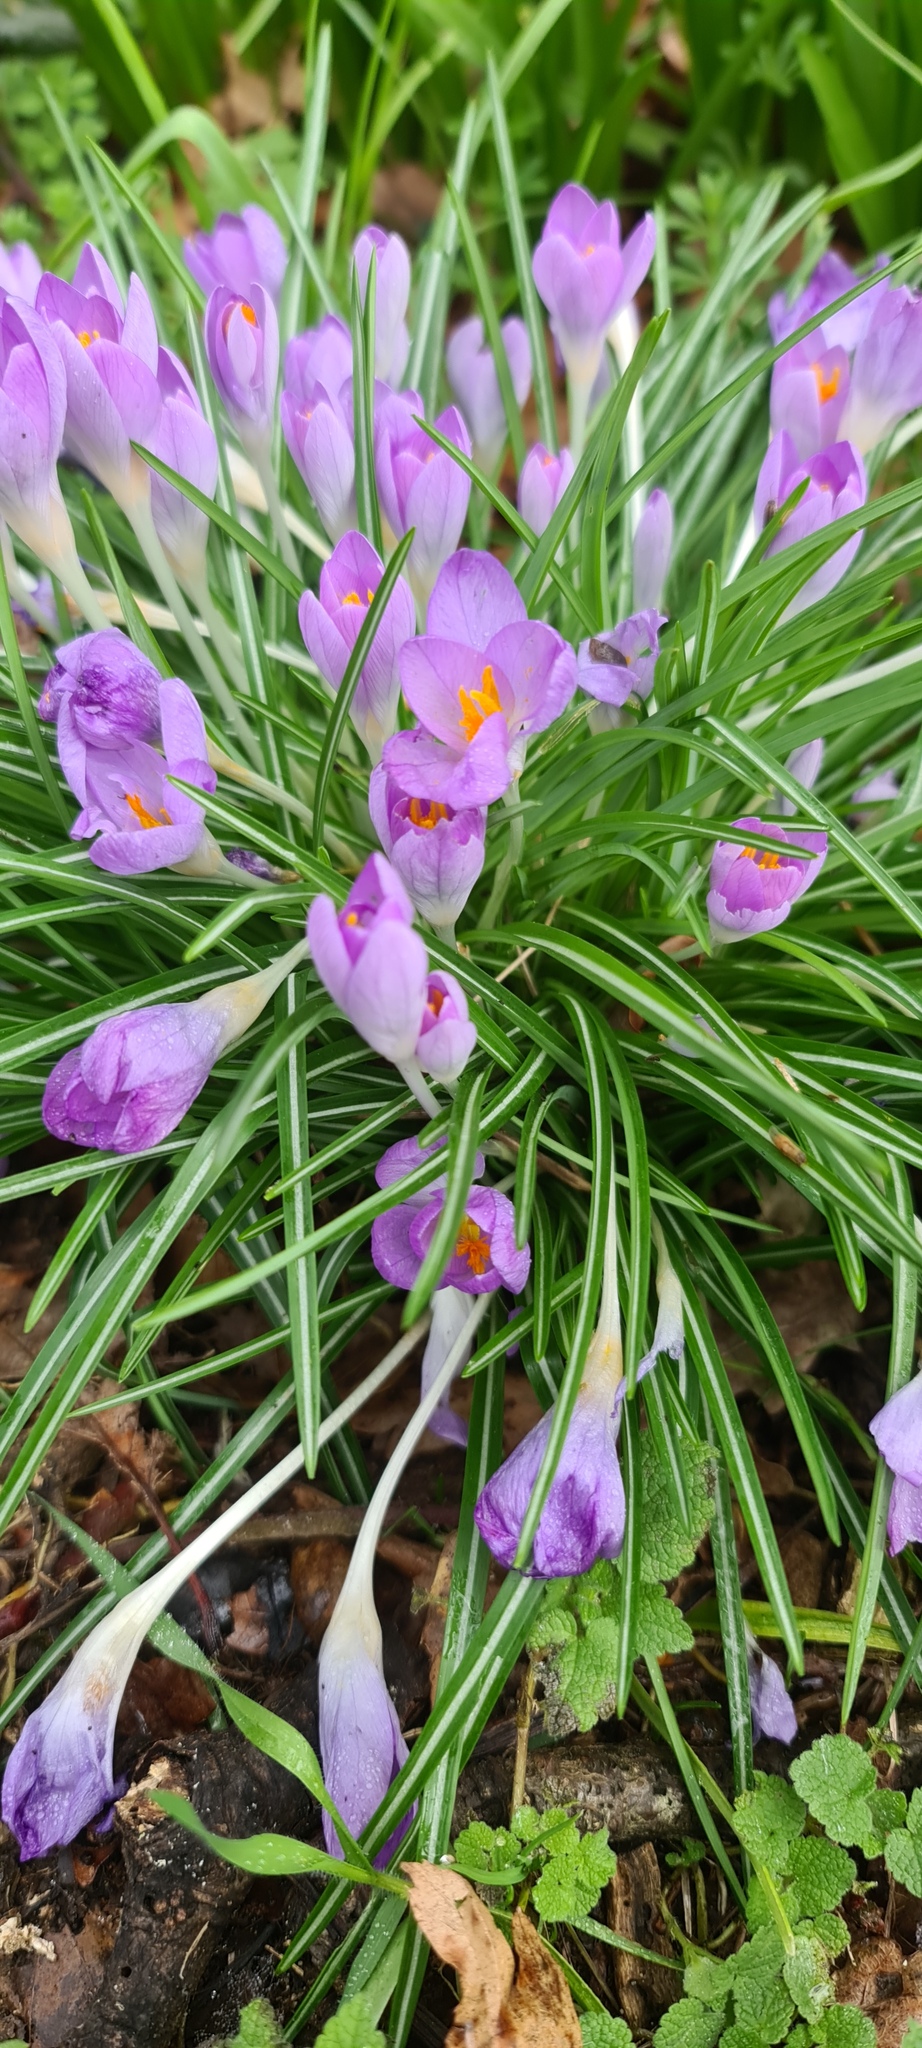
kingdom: Plantae
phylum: Tracheophyta
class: Liliopsida
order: Asparagales
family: Iridaceae
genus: Crocus
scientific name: Crocus tommasinianus
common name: Early crocus
